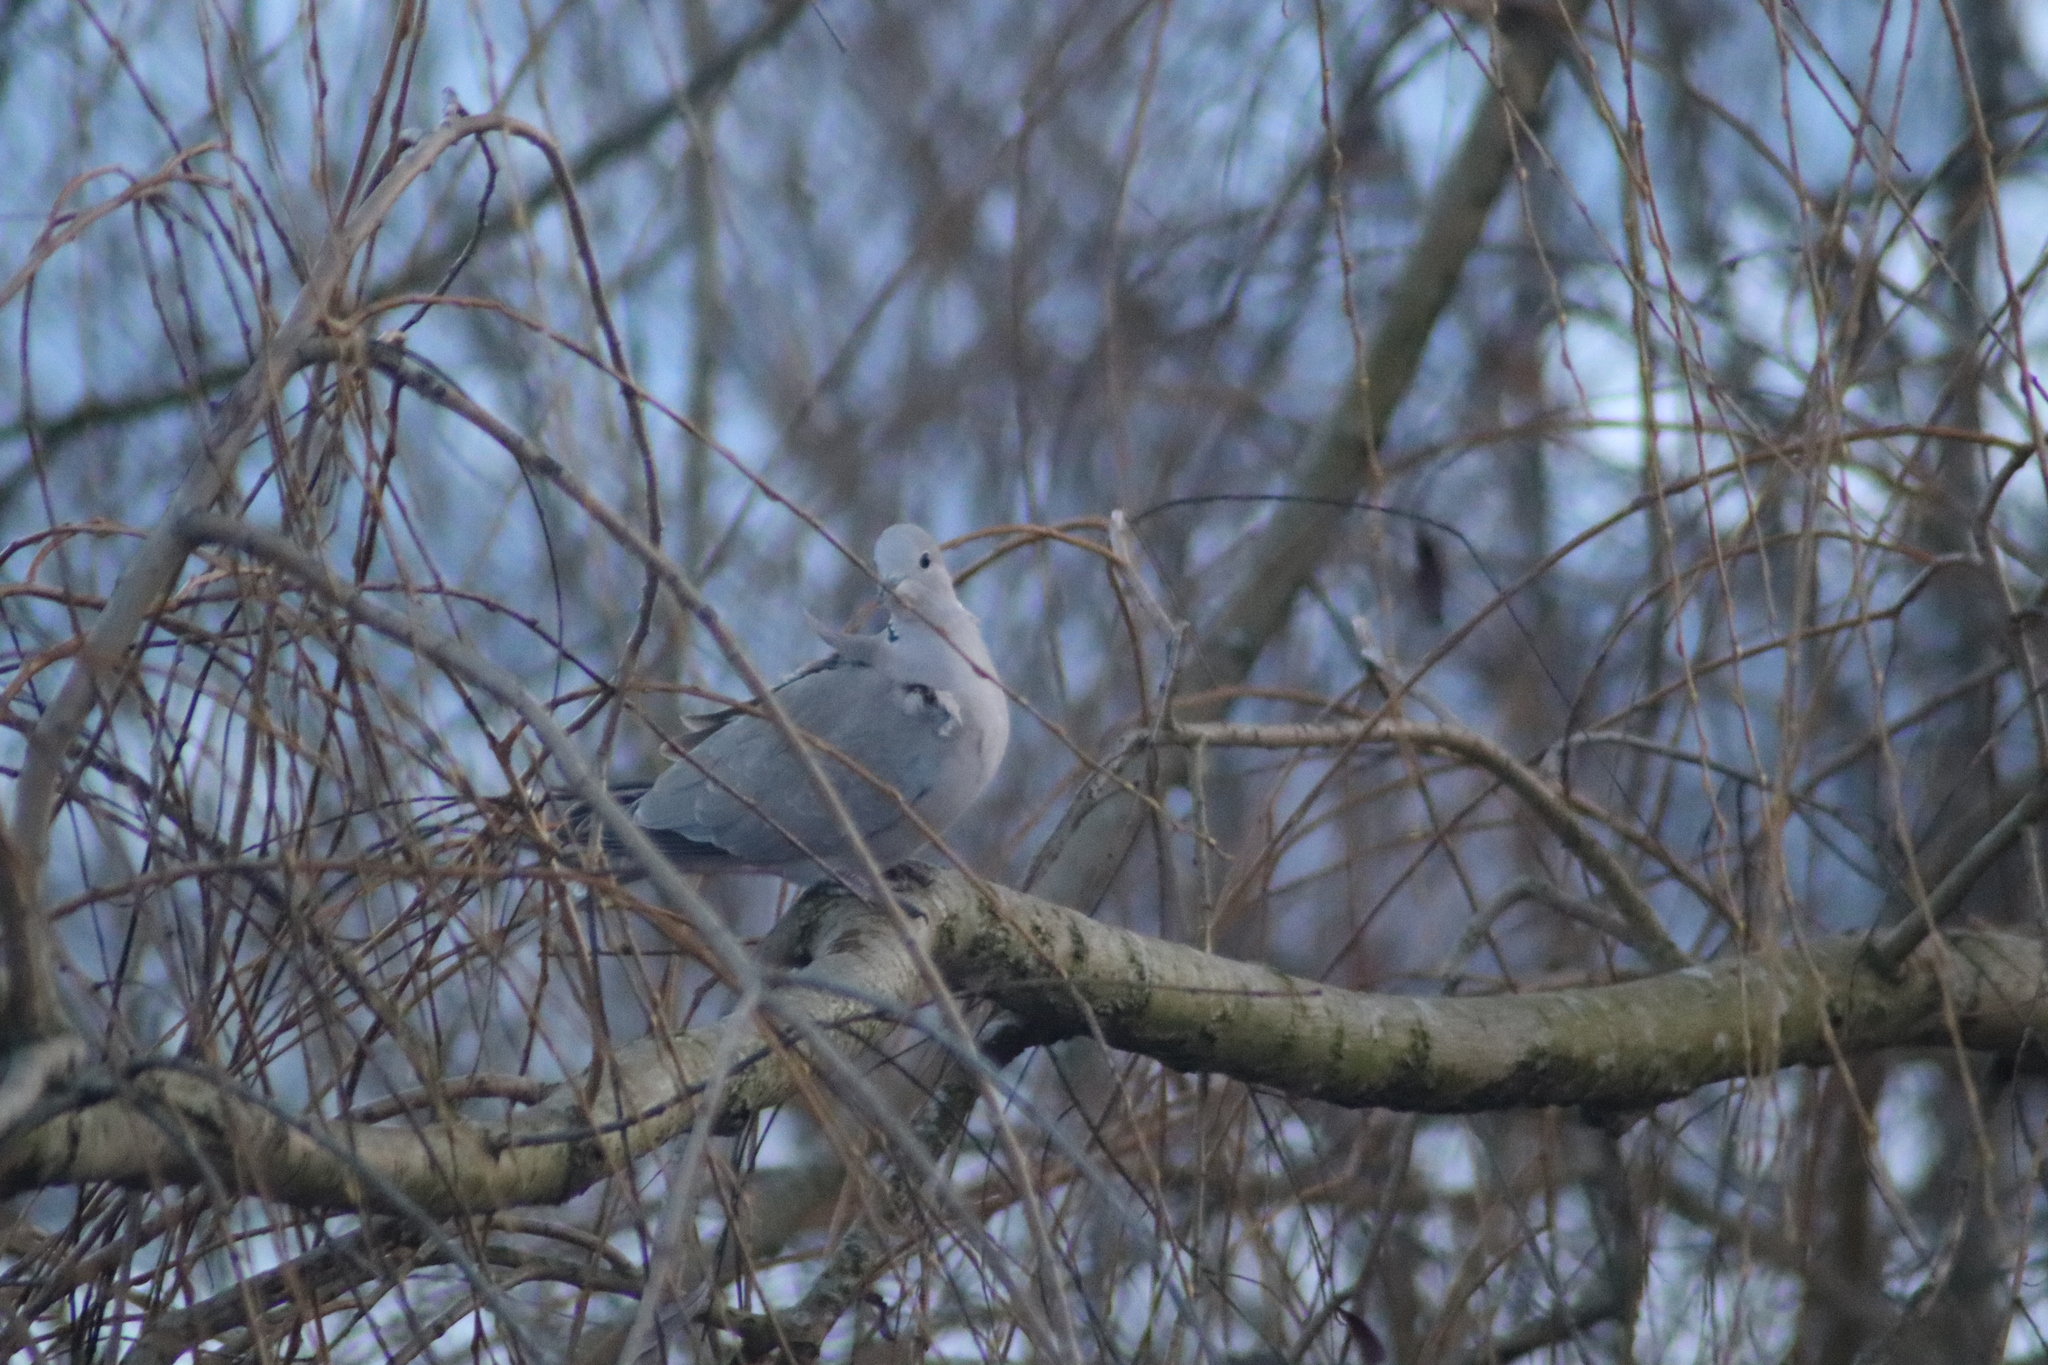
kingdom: Animalia
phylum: Chordata
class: Aves
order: Columbiformes
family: Columbidae
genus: Streptopelia
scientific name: Streptopelia decaocto
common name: Eurasian collared dove
